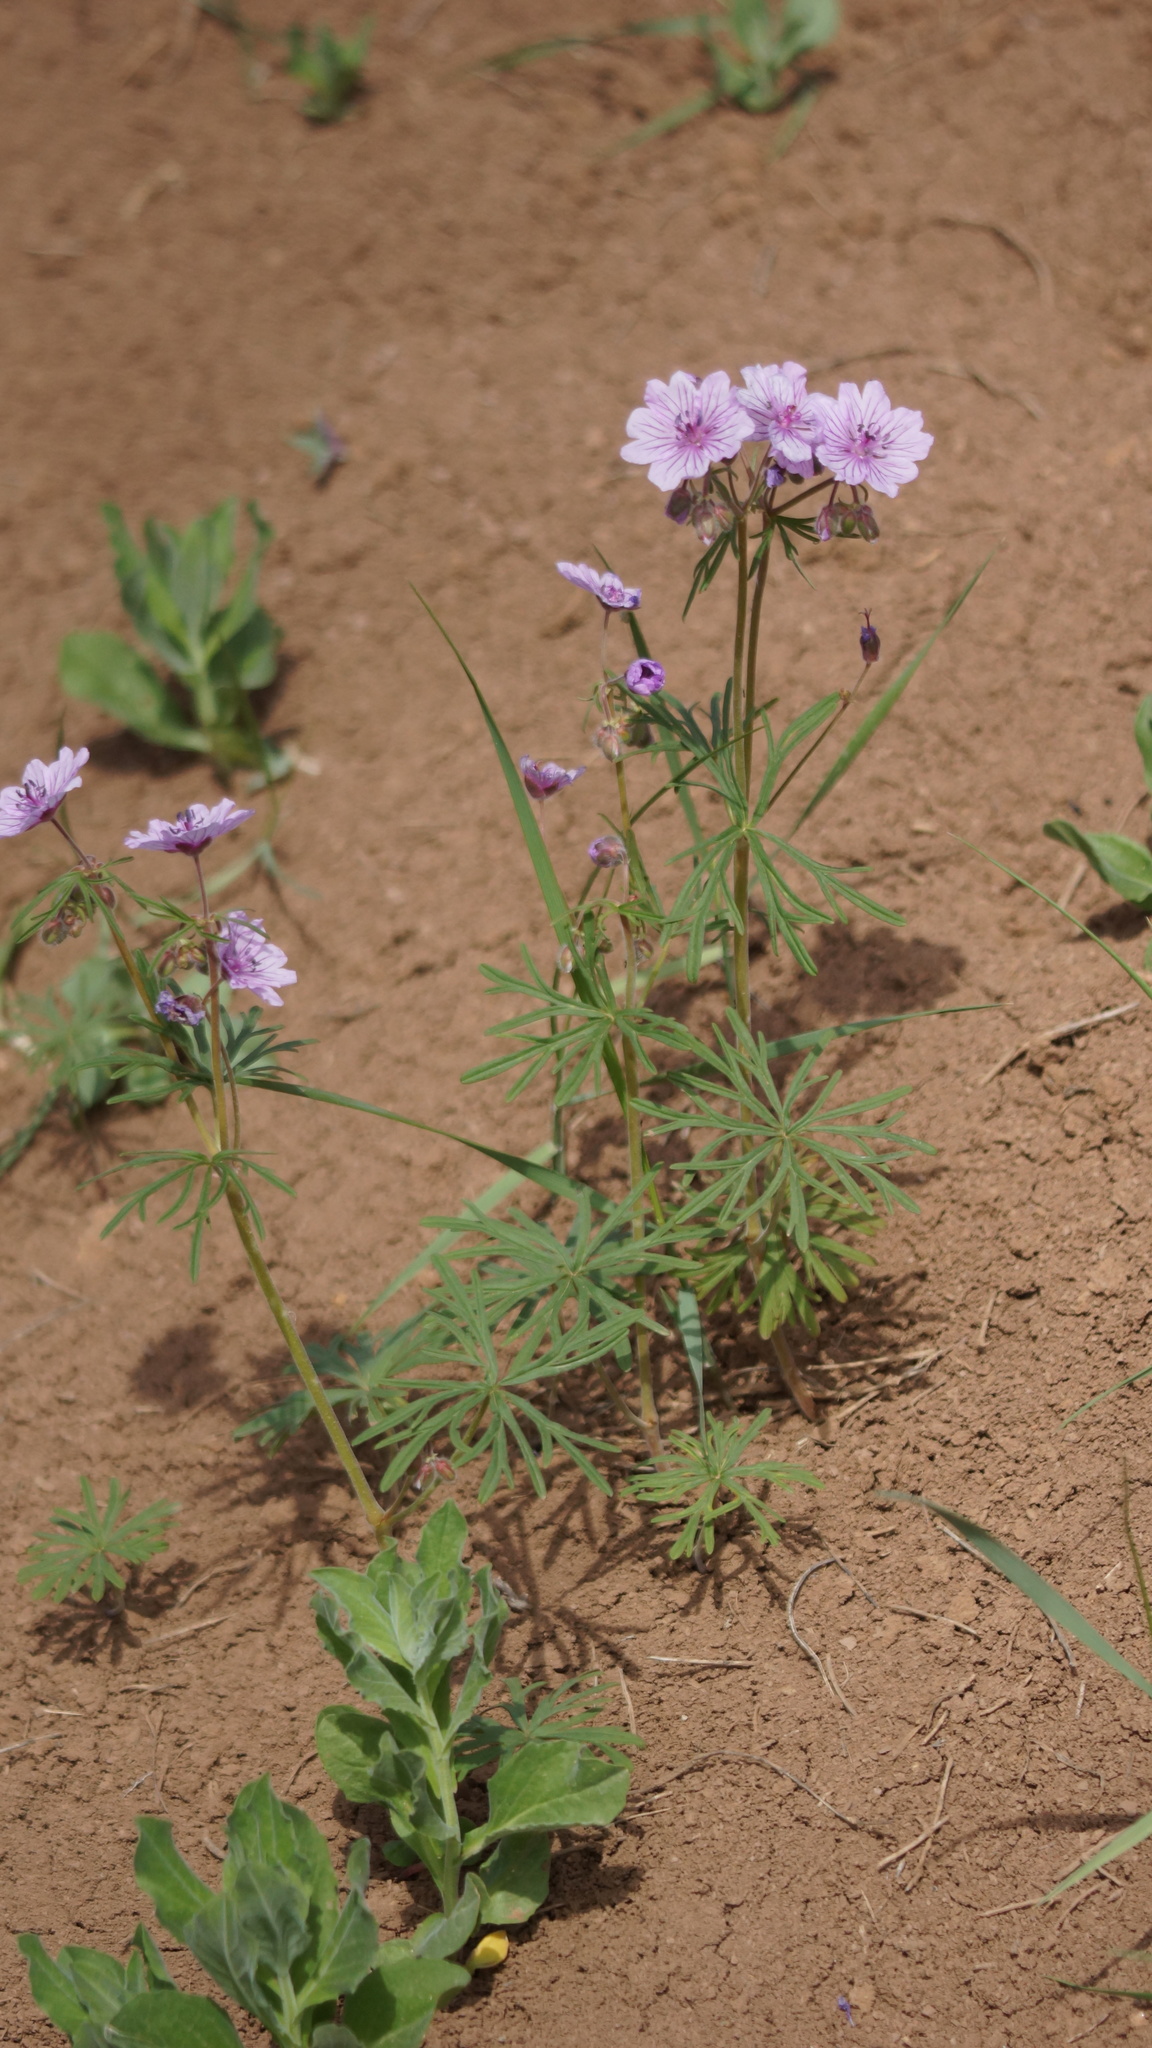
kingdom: Plantae
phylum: Tracheophyta
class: Magnoliopsida
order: Geraniales
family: Geraniaceae
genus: Geranium
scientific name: Geranium linearilobum
